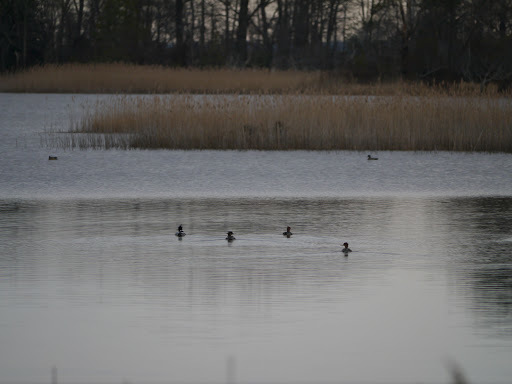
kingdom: Animalia
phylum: Chordata
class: Aves
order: Anseriformes
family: Anatidae
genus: Mergus
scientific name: Mergus serrator
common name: Red-breasted merganser
